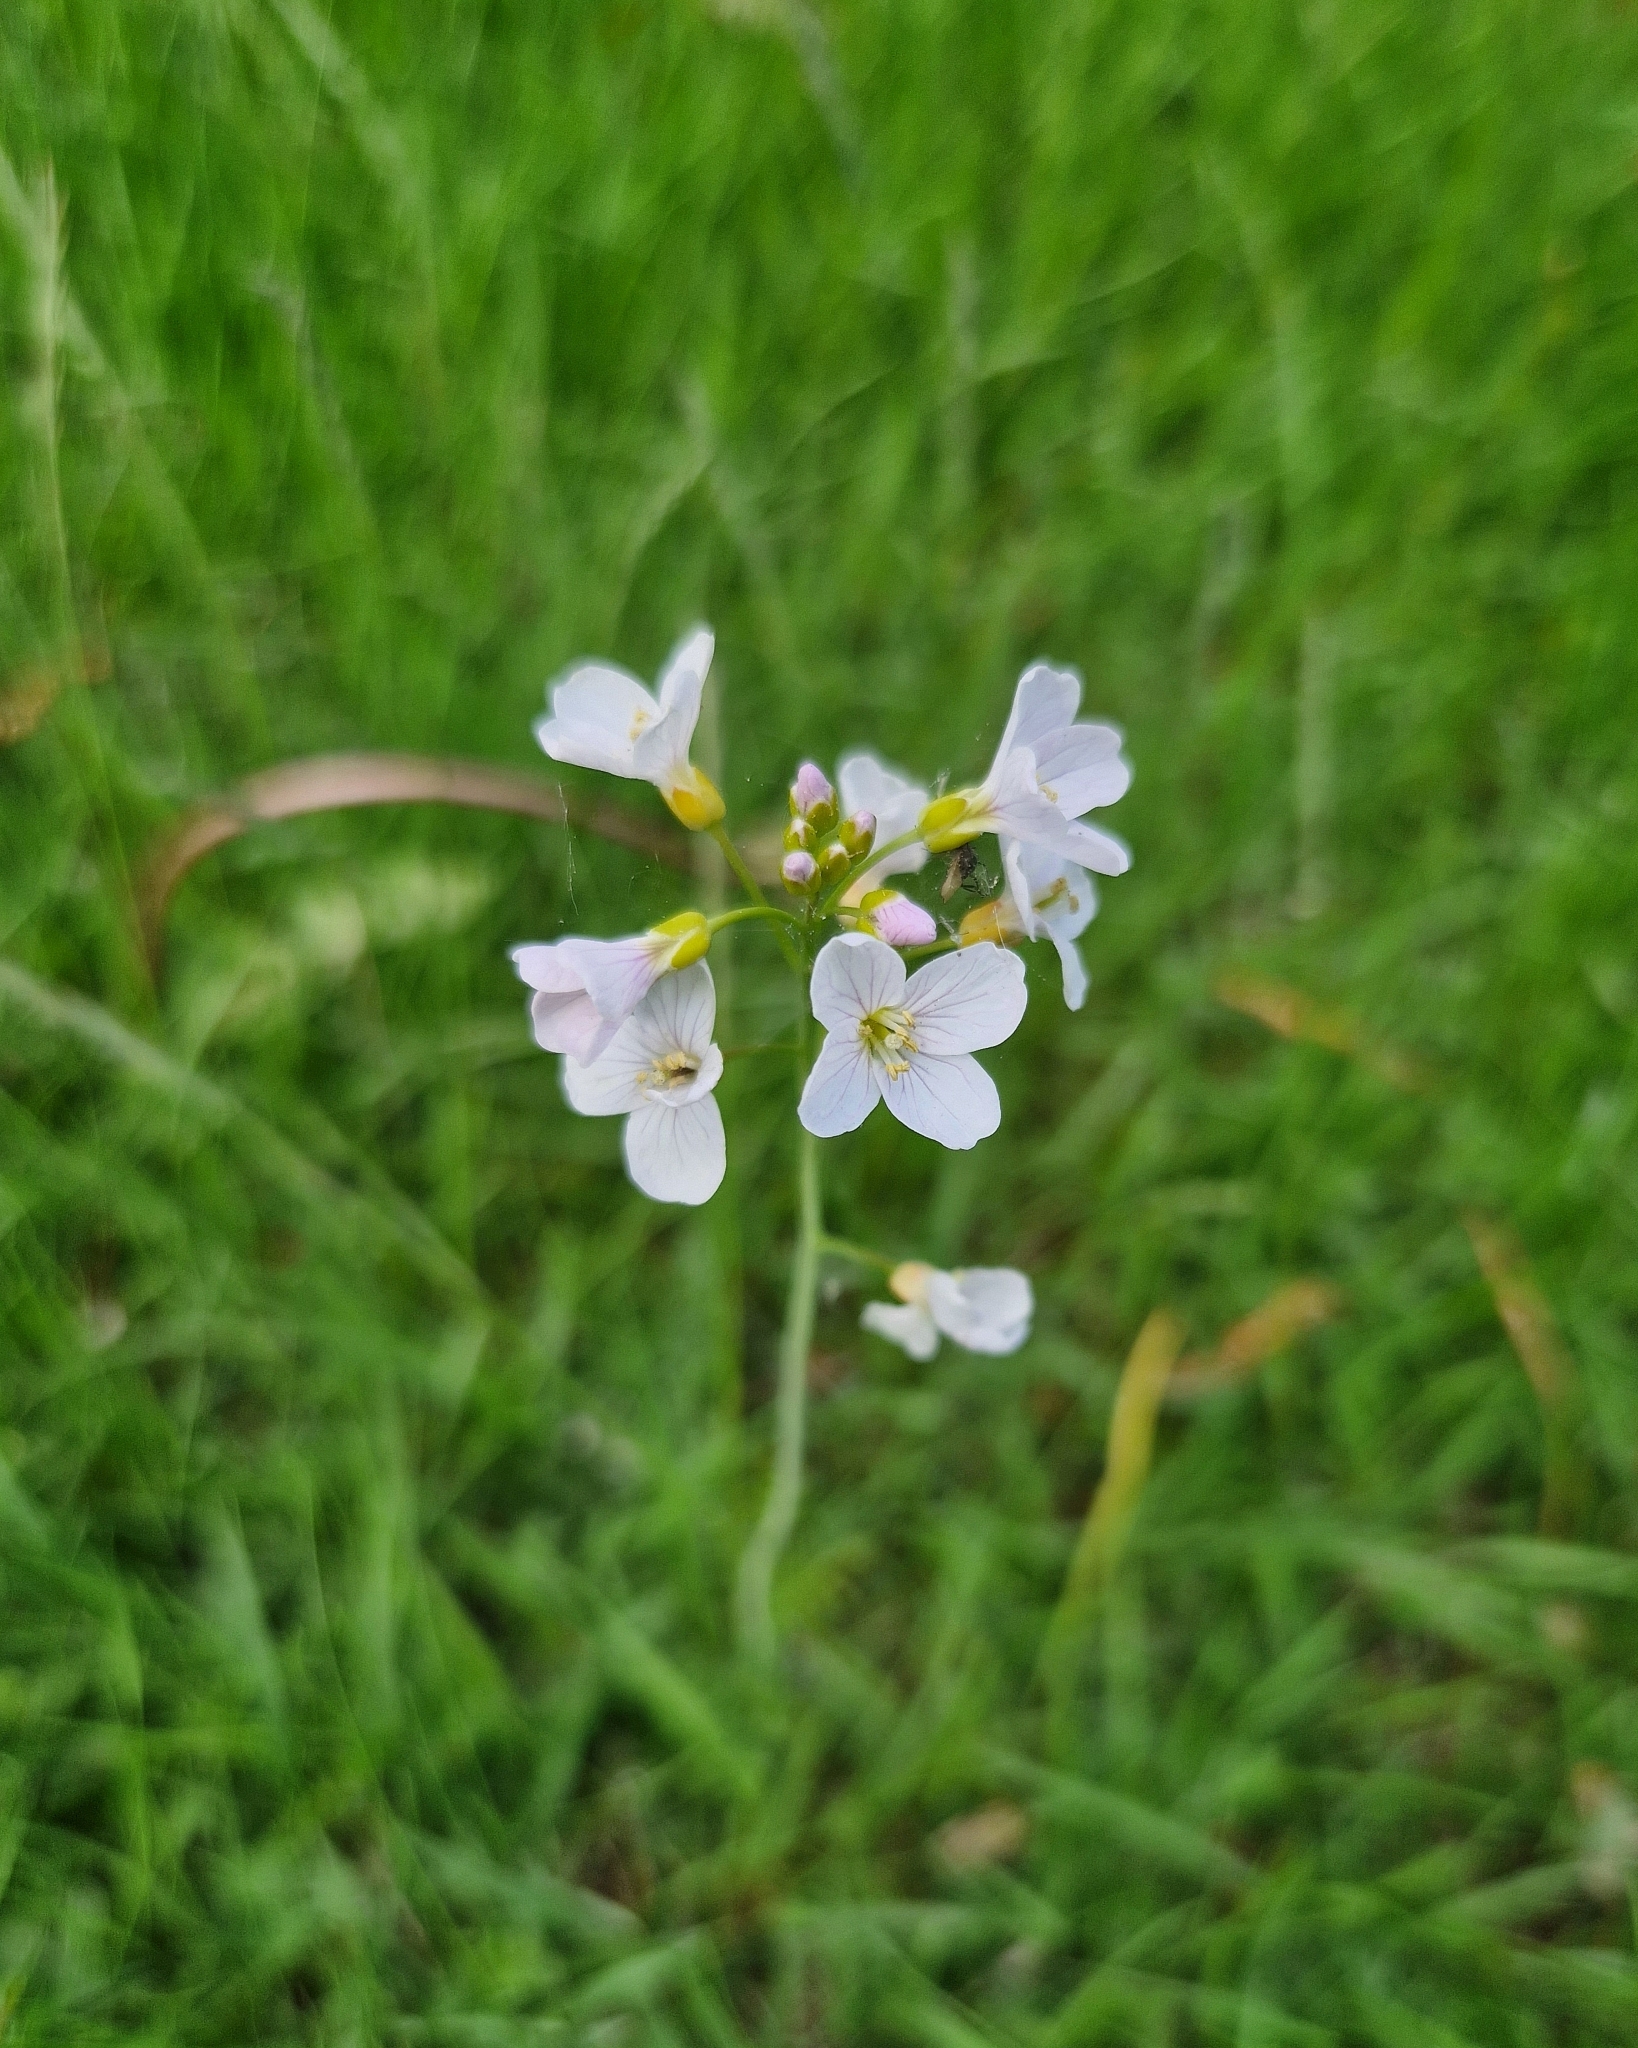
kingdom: Plantae
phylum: Tracheophyta
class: Magnoliopsida
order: Brassicales
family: Brassicaceae
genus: Cardamine
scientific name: Cardamine pratensis
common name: Cuckoo flower
